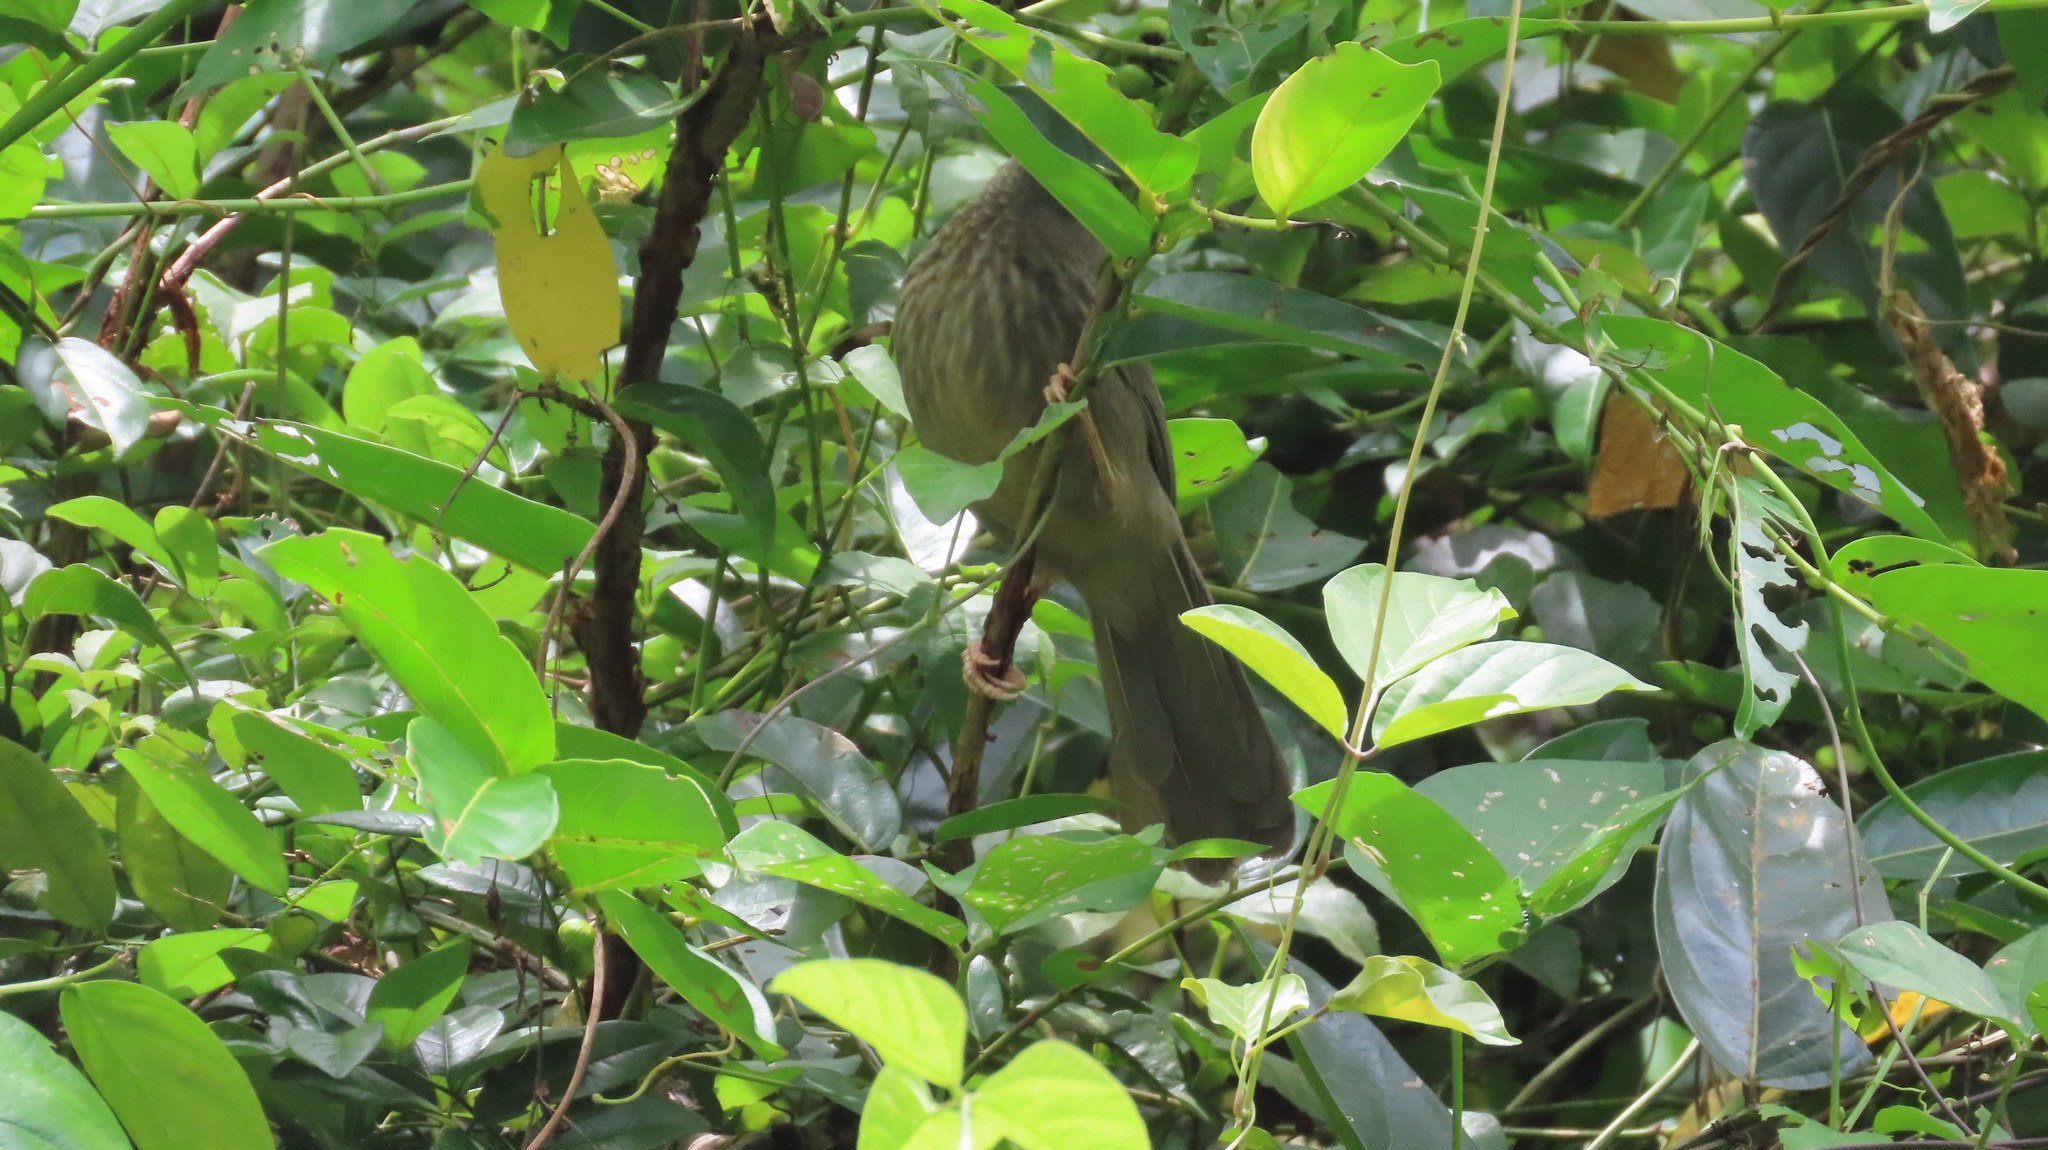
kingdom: Animalia
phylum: Chordata
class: Aves
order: Passeriformes
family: Leiothrichidae
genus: Turdoides
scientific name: Turdoides striata
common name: Jungle babbler
